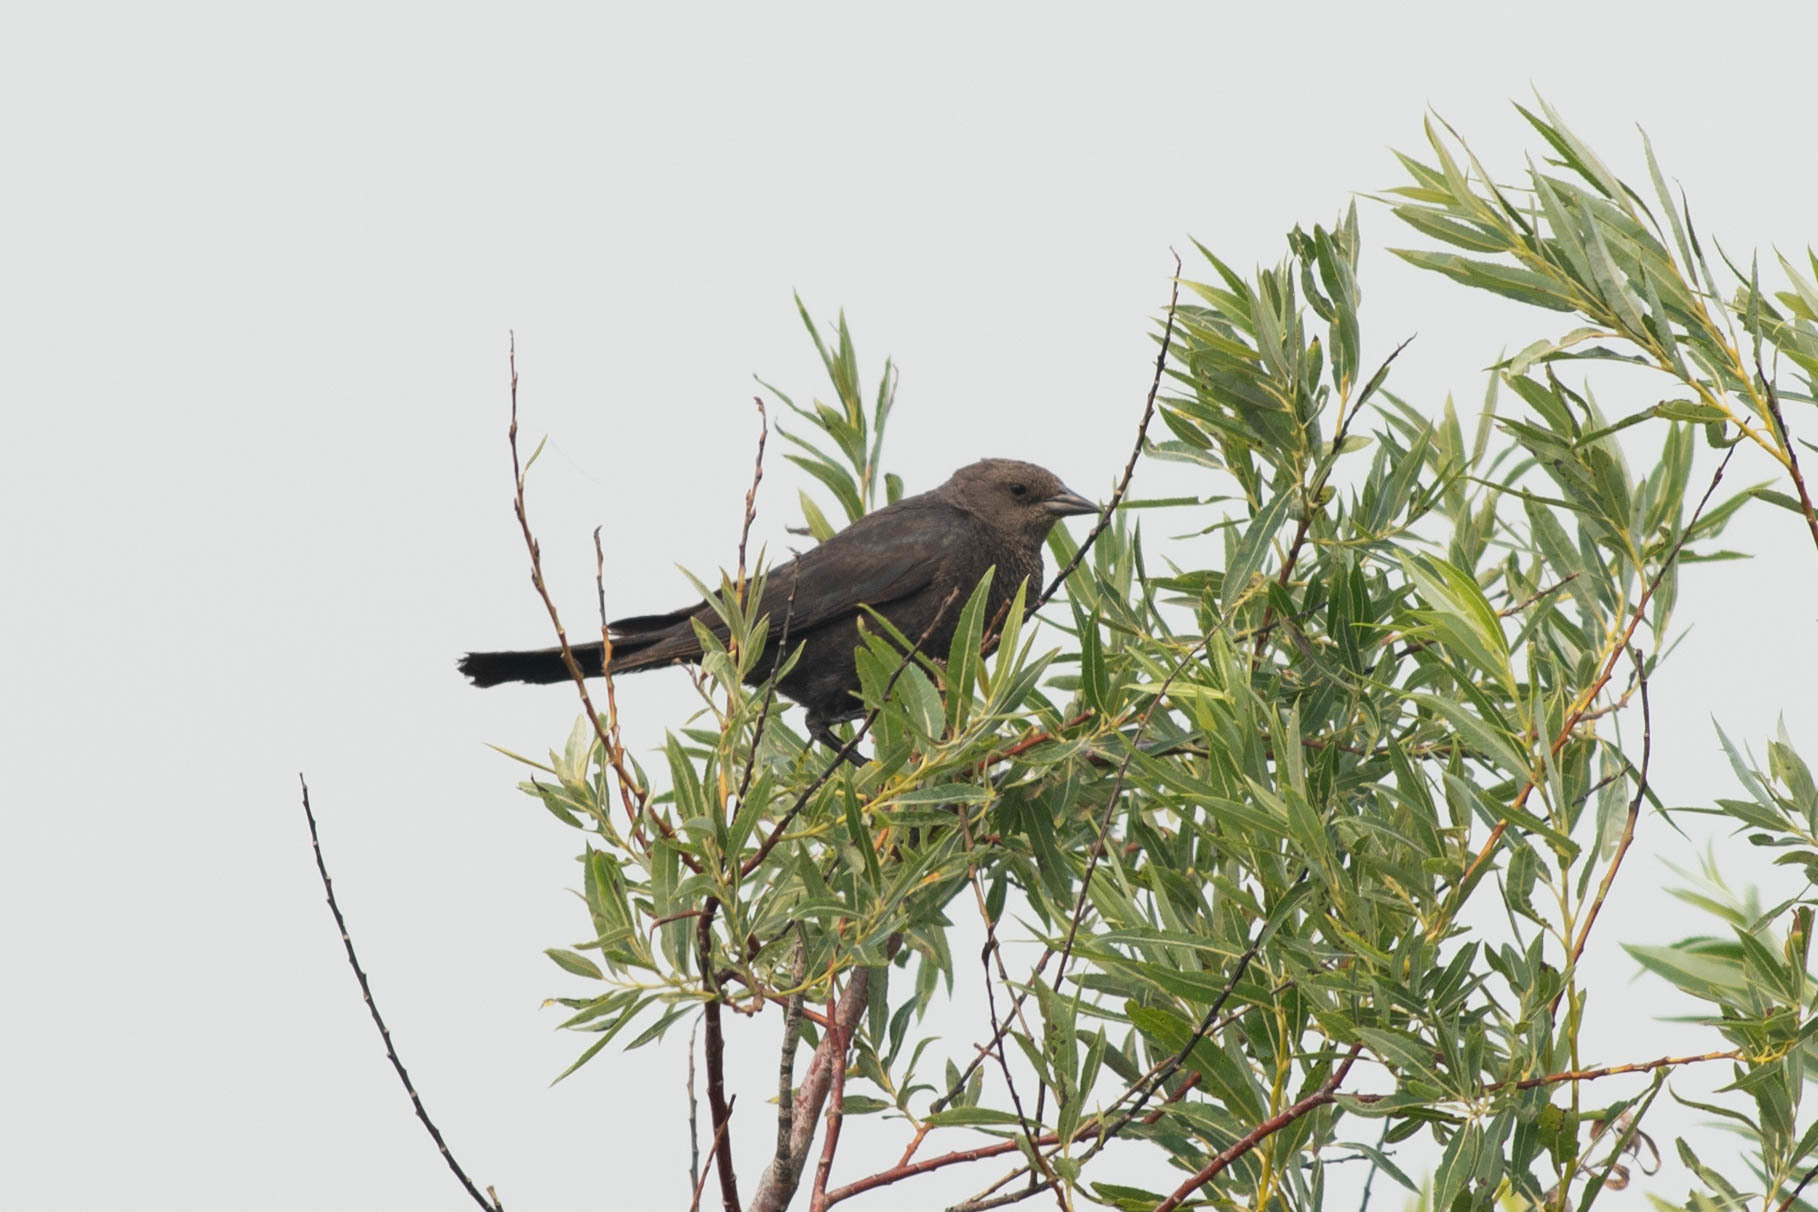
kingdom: Animalia
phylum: Chordata
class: Aves
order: Passeriformes
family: Icteridae
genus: Euphagus
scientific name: Euphagus cyanocephalus
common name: Brewer's blackbird
